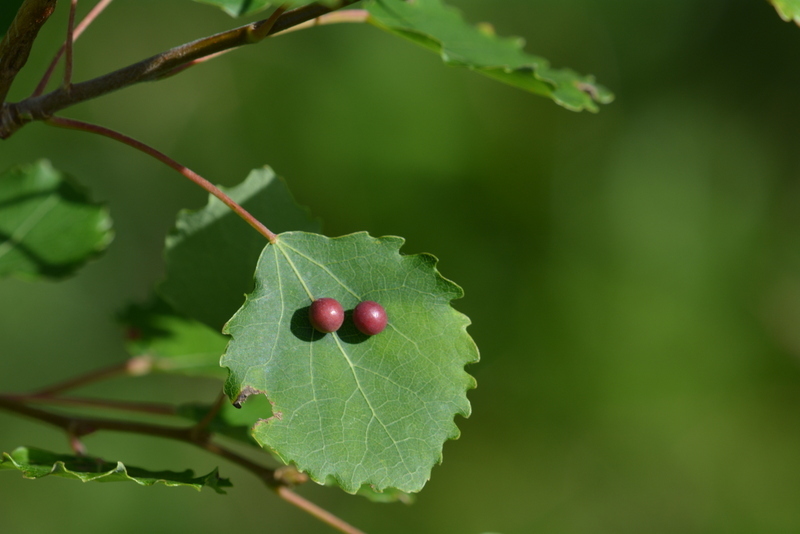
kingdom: Animalia
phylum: Arthropoda
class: Insecta
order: Diptera
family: Cecidomyiidae
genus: Harmandiola
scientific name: Harmandiola tremulae
